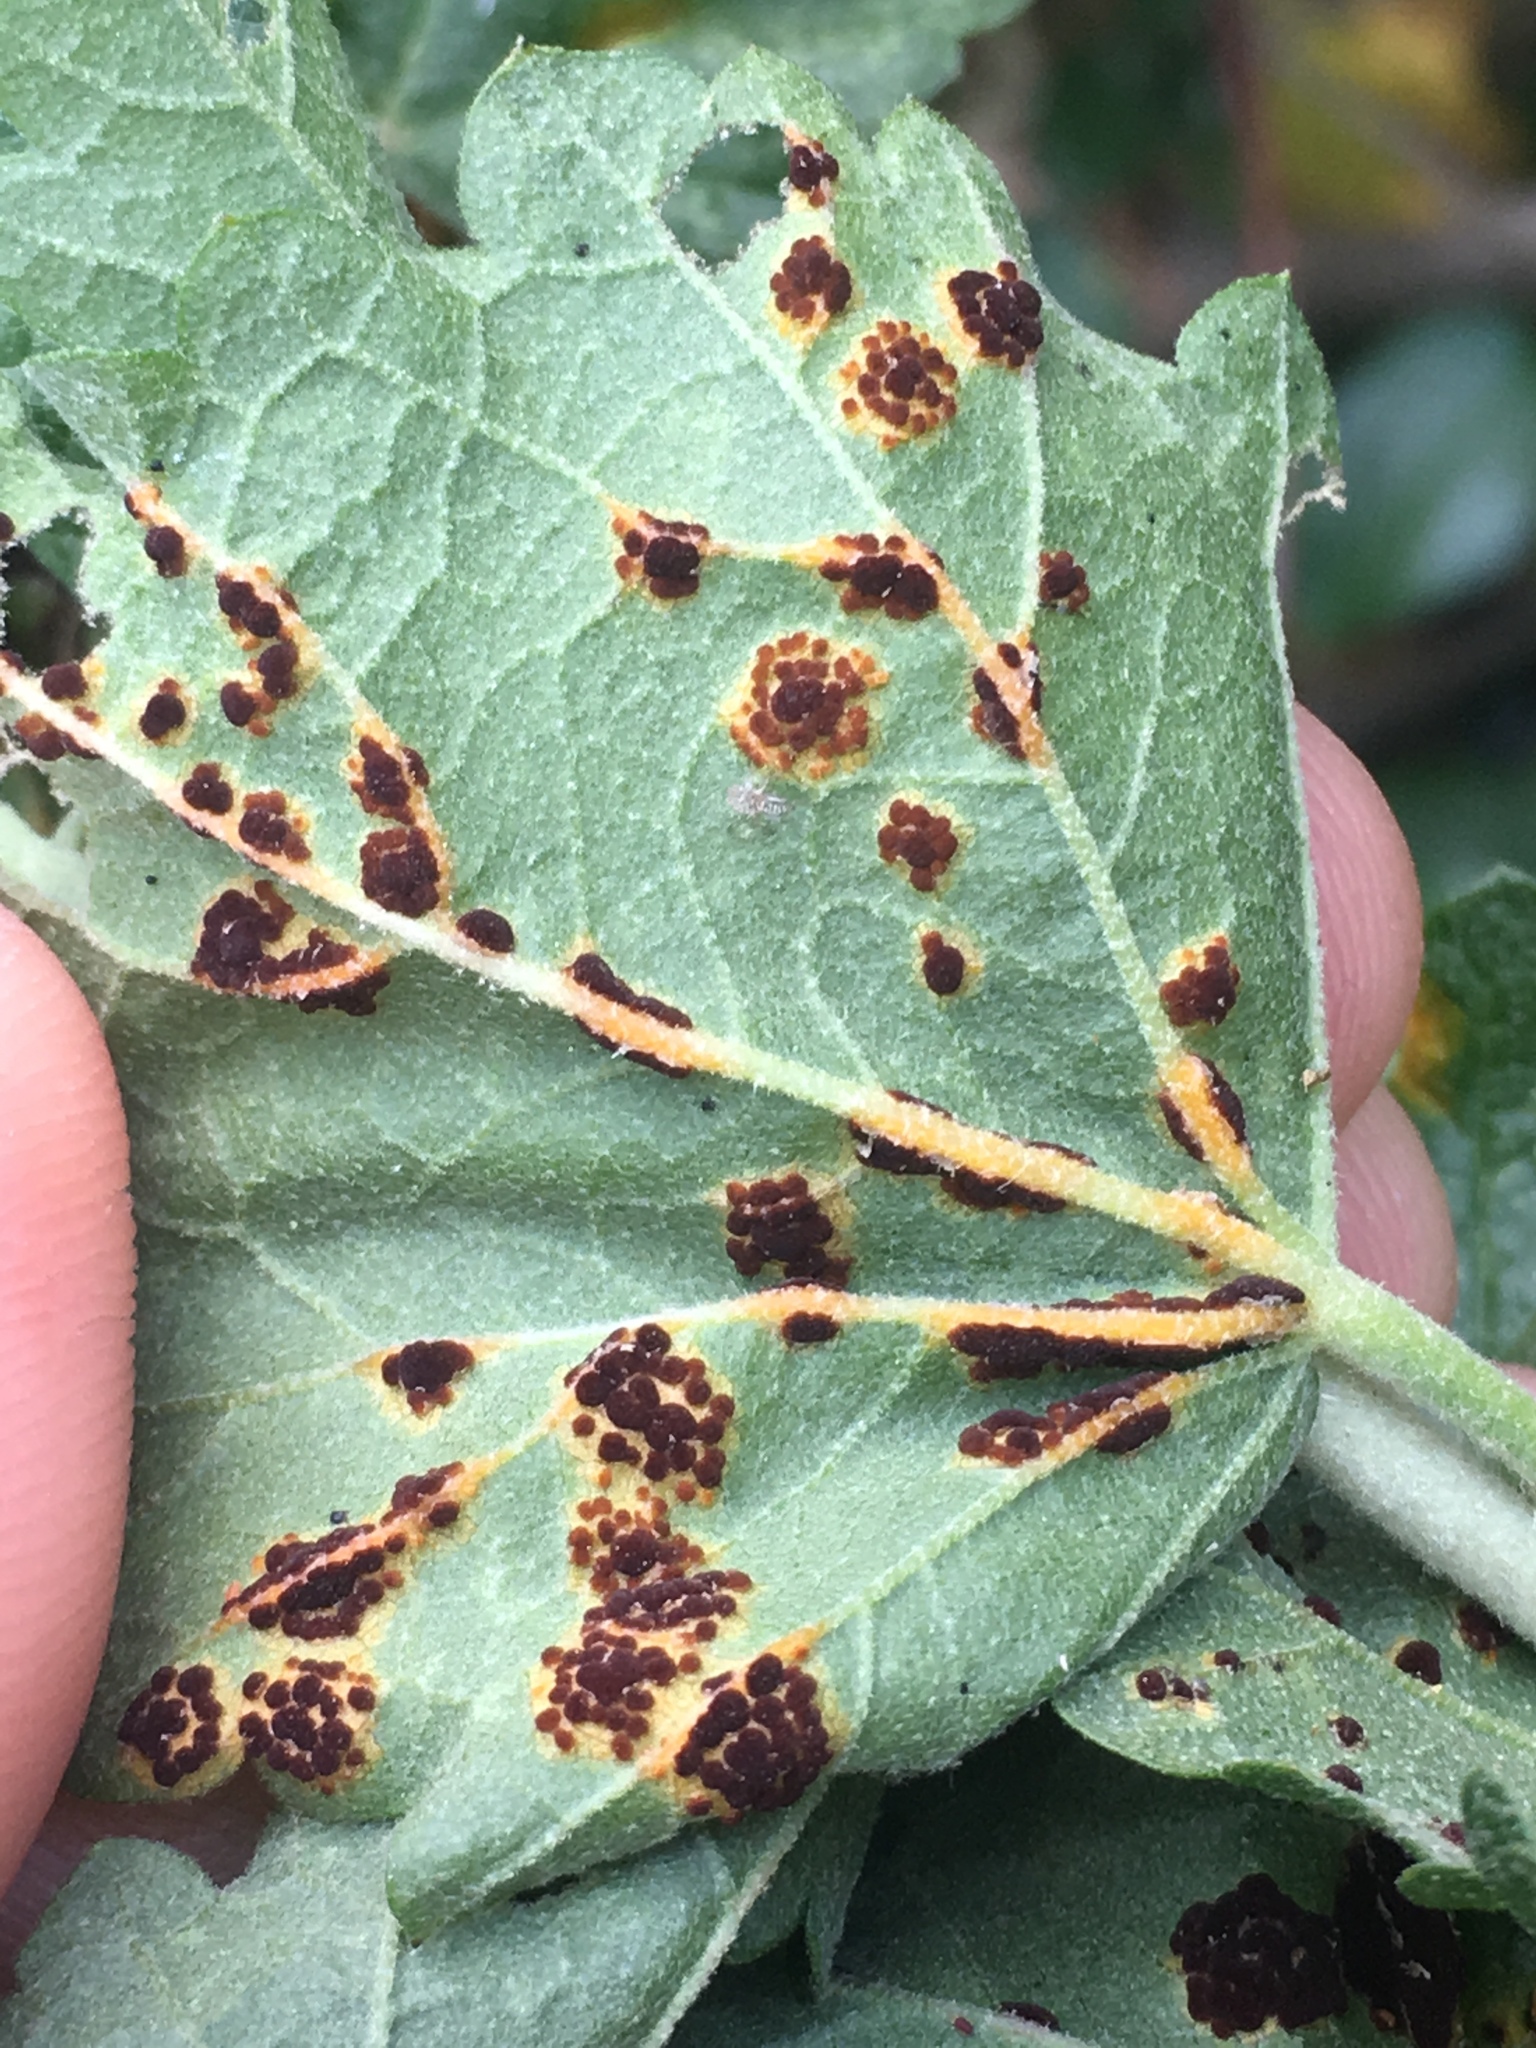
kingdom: Fungi
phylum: Basidiomycota
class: Pucciniomycetes
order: Pucciniales
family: Pucciniaceae
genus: Puccinia
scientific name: Puccinia malvacearum
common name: Hollyhock rust
